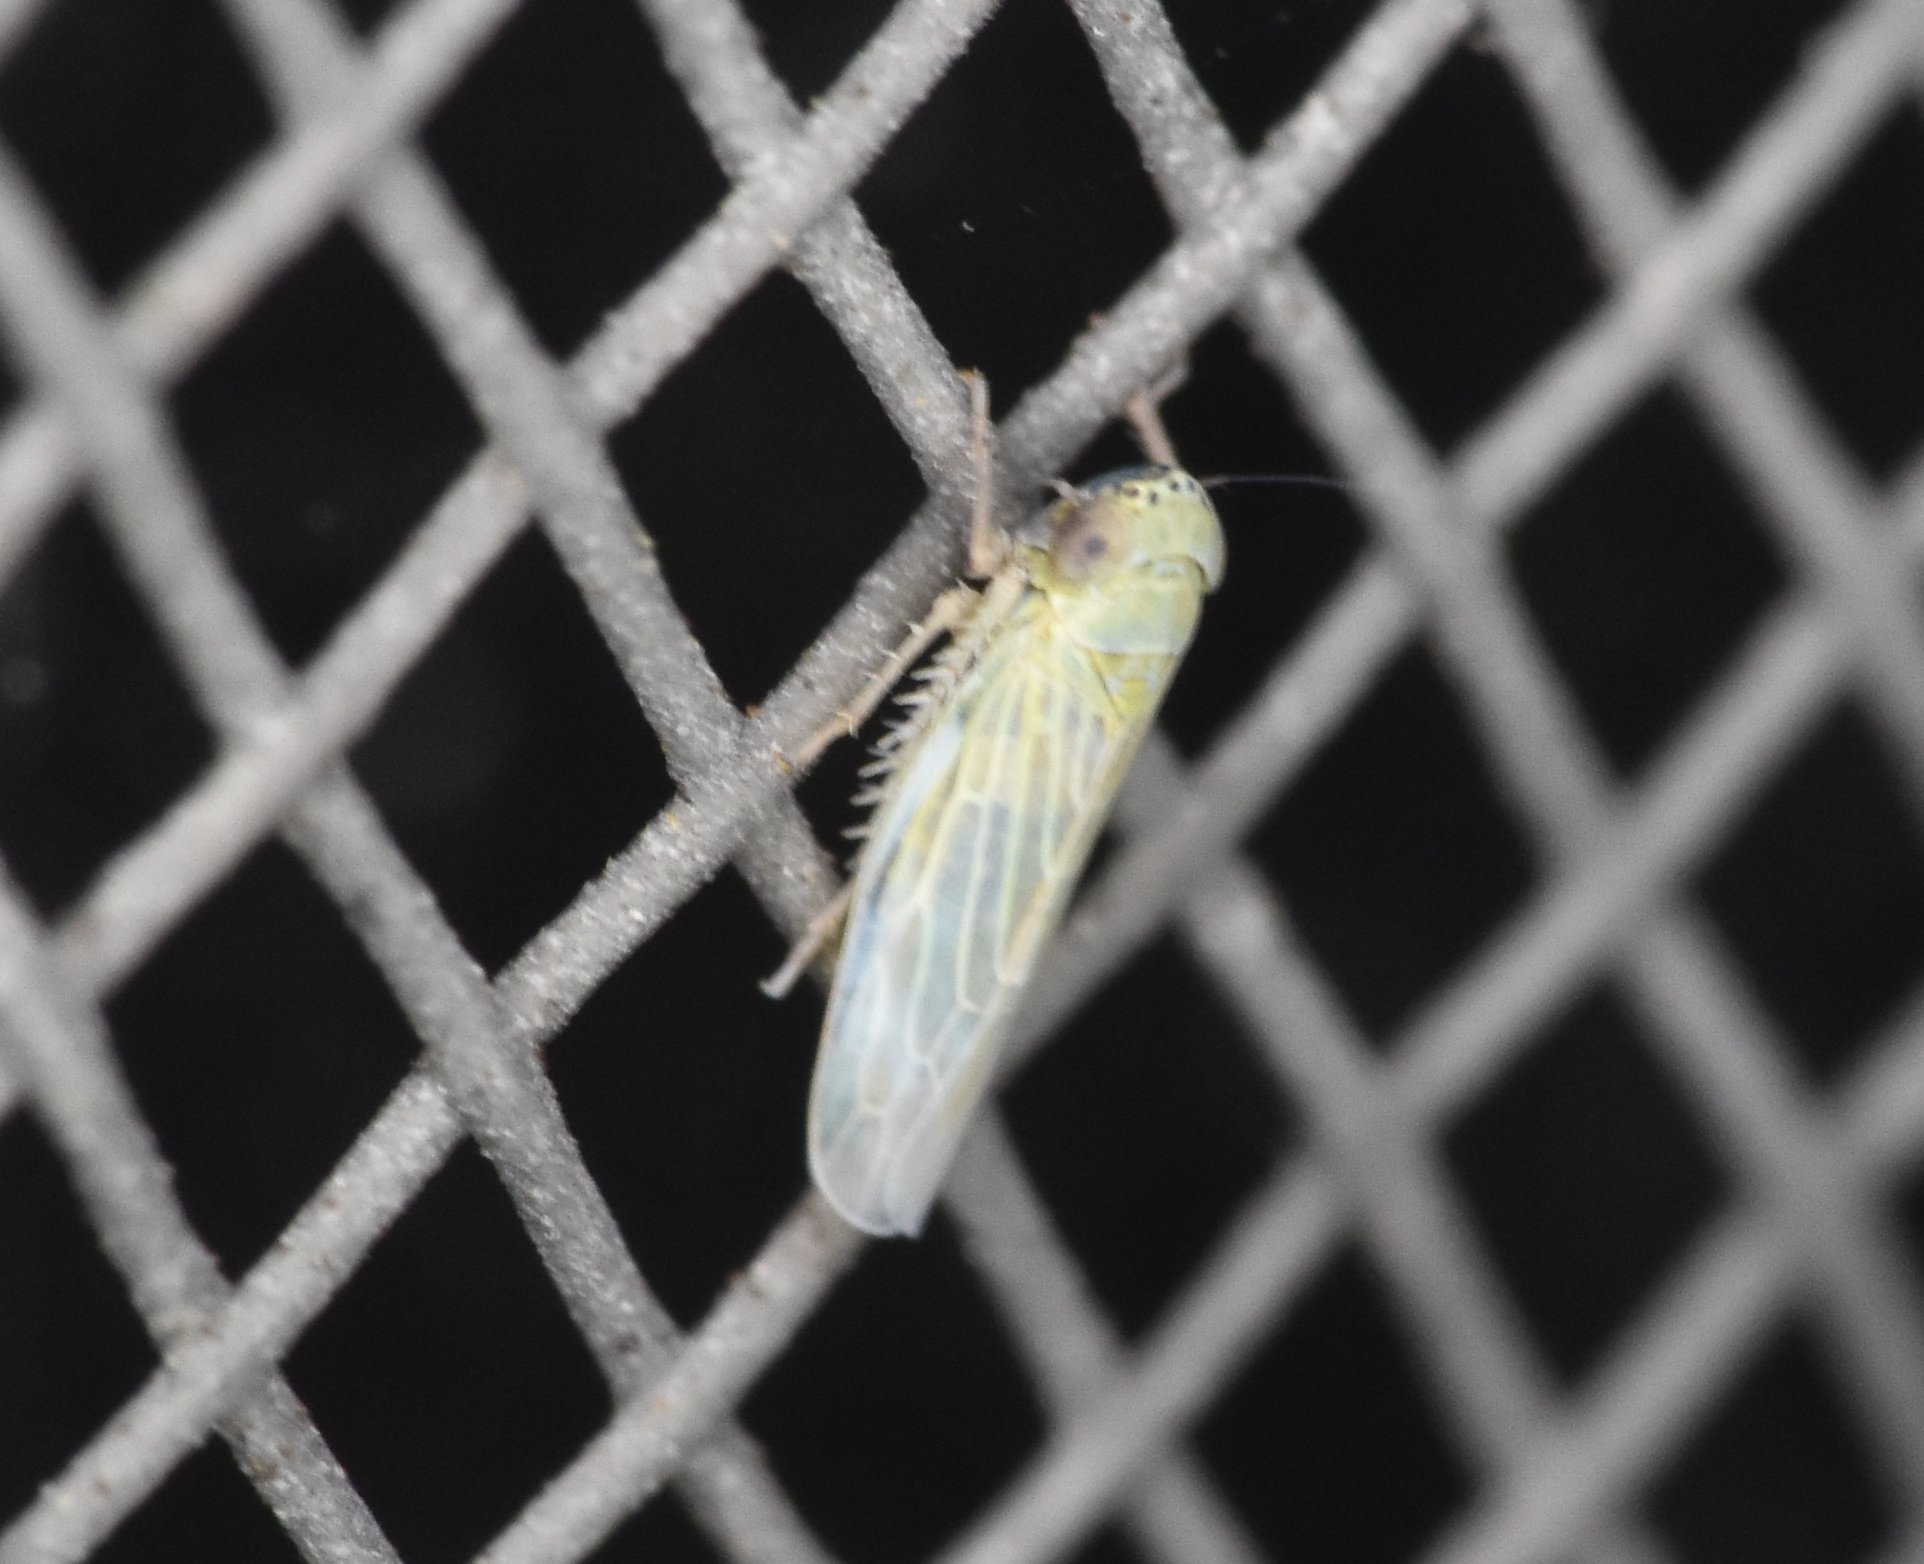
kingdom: Animalia
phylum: Arthropoda
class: Insecta
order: Hemiptera
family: Cicadellidae
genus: Graminella
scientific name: Graminella nigrifrons
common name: Blackfaced leafhopper
